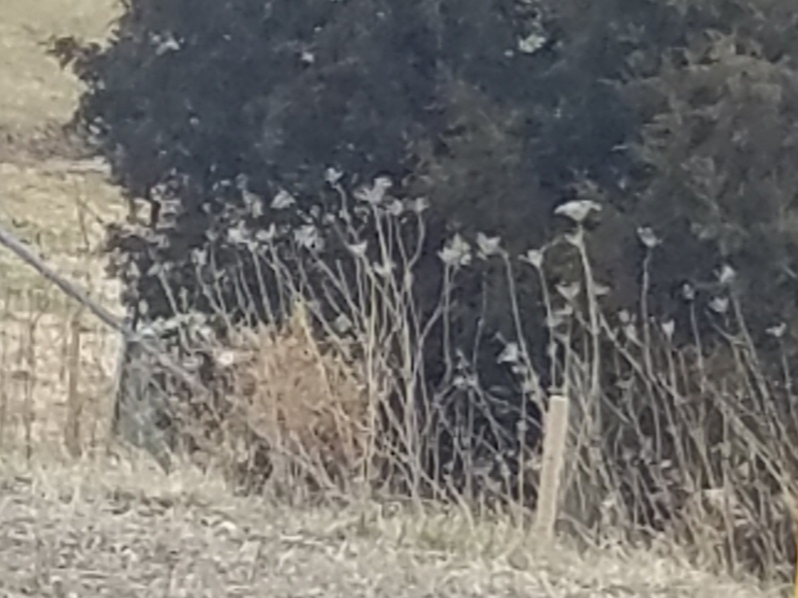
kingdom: Plantae
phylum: Tracheophyta
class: Magnoliopsida
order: Apiales
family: Apiaceae
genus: Daucus
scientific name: Daucus carota
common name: Wild carrot
